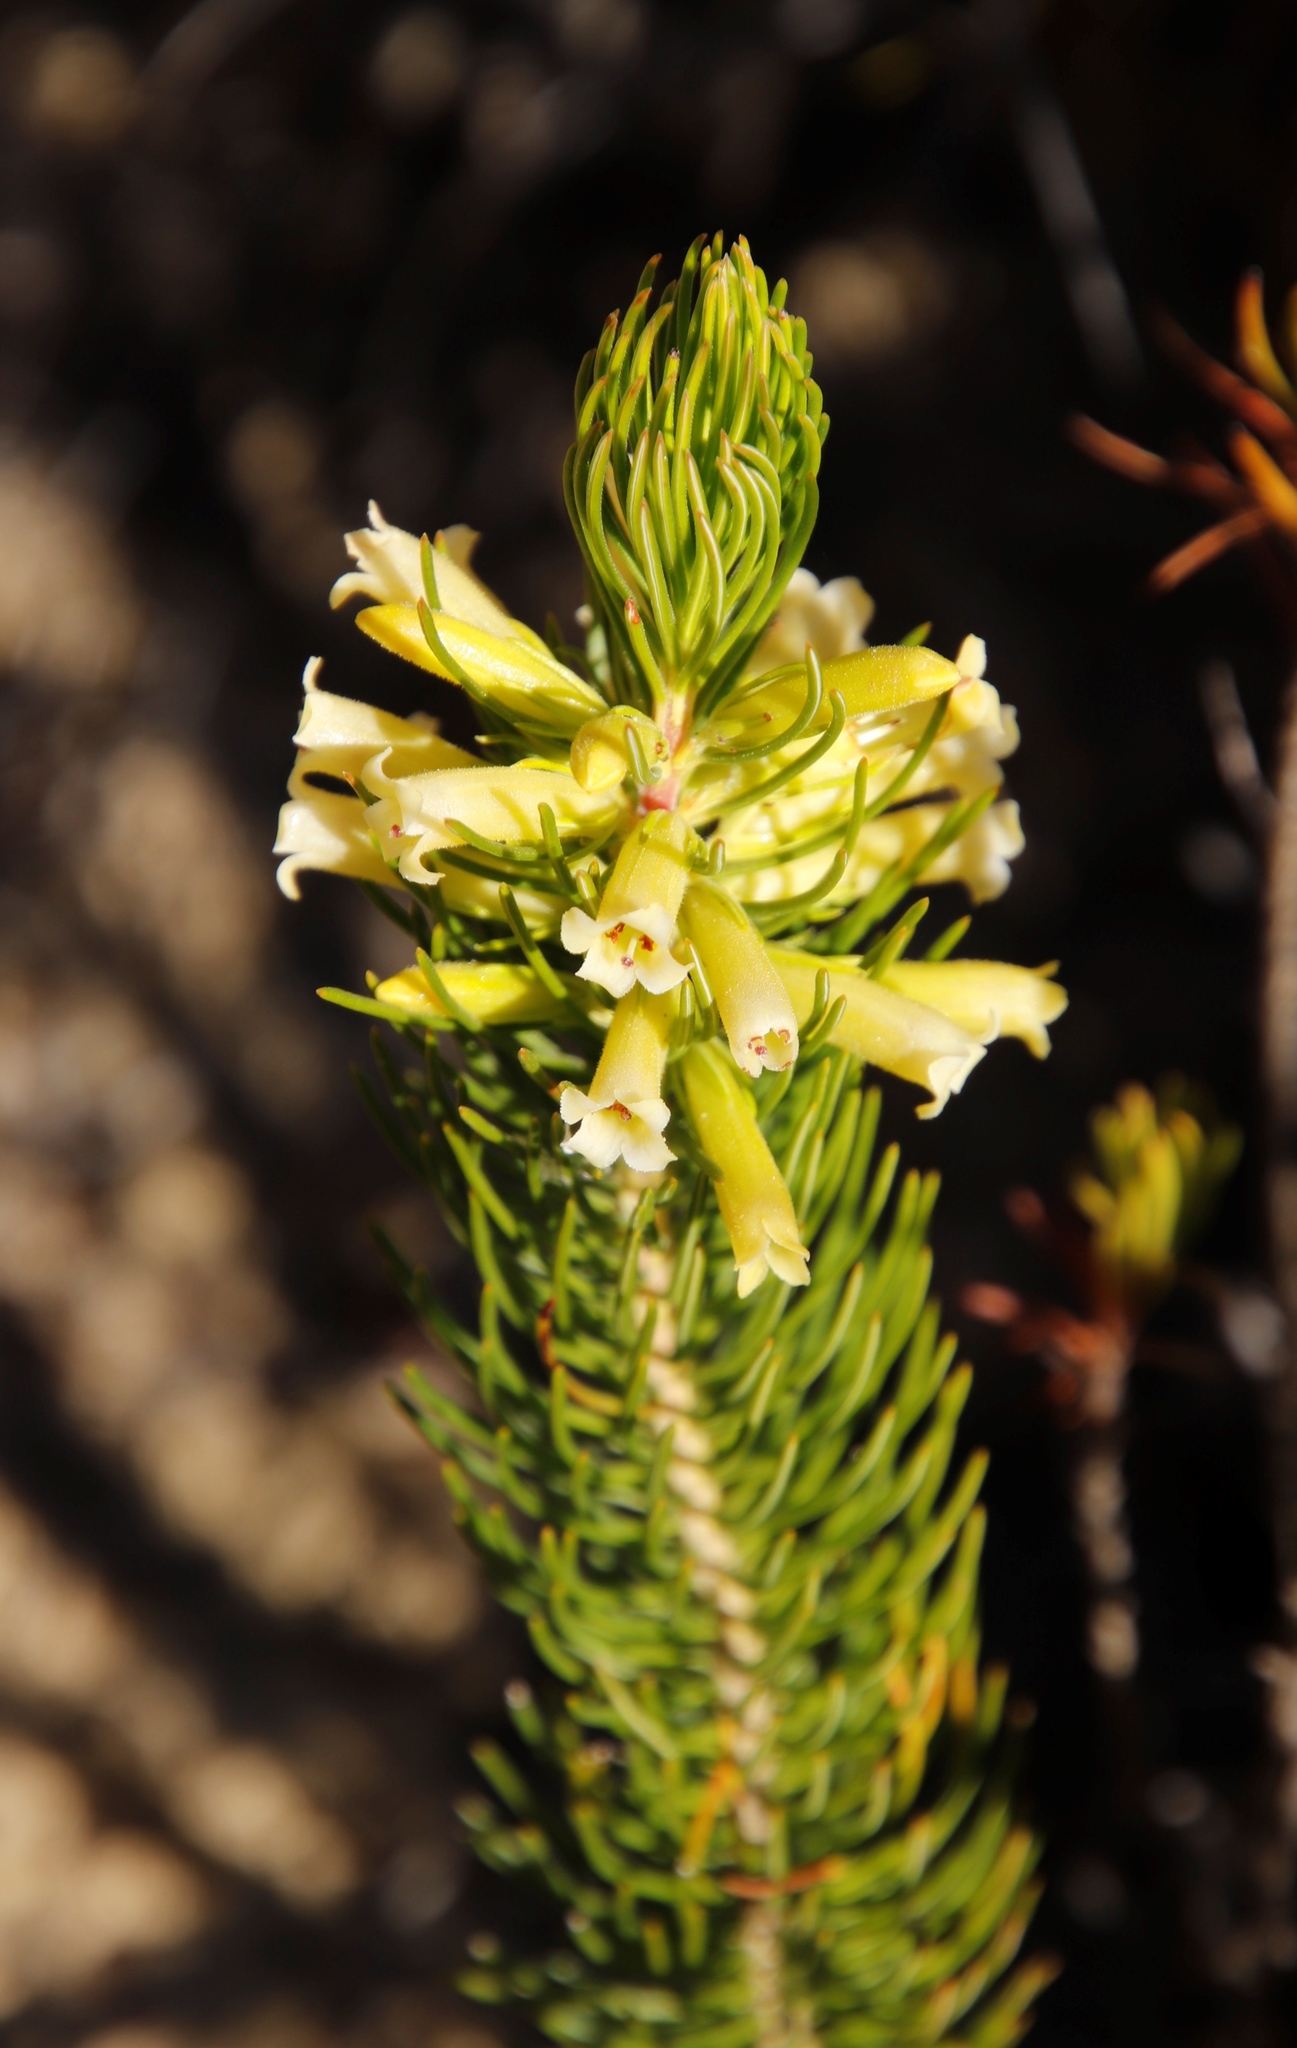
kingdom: Plantae
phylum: Tracheophyta
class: Magnoliopsida
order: Ericales
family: Ericaceae
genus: Erica
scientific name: Erica viscaria
